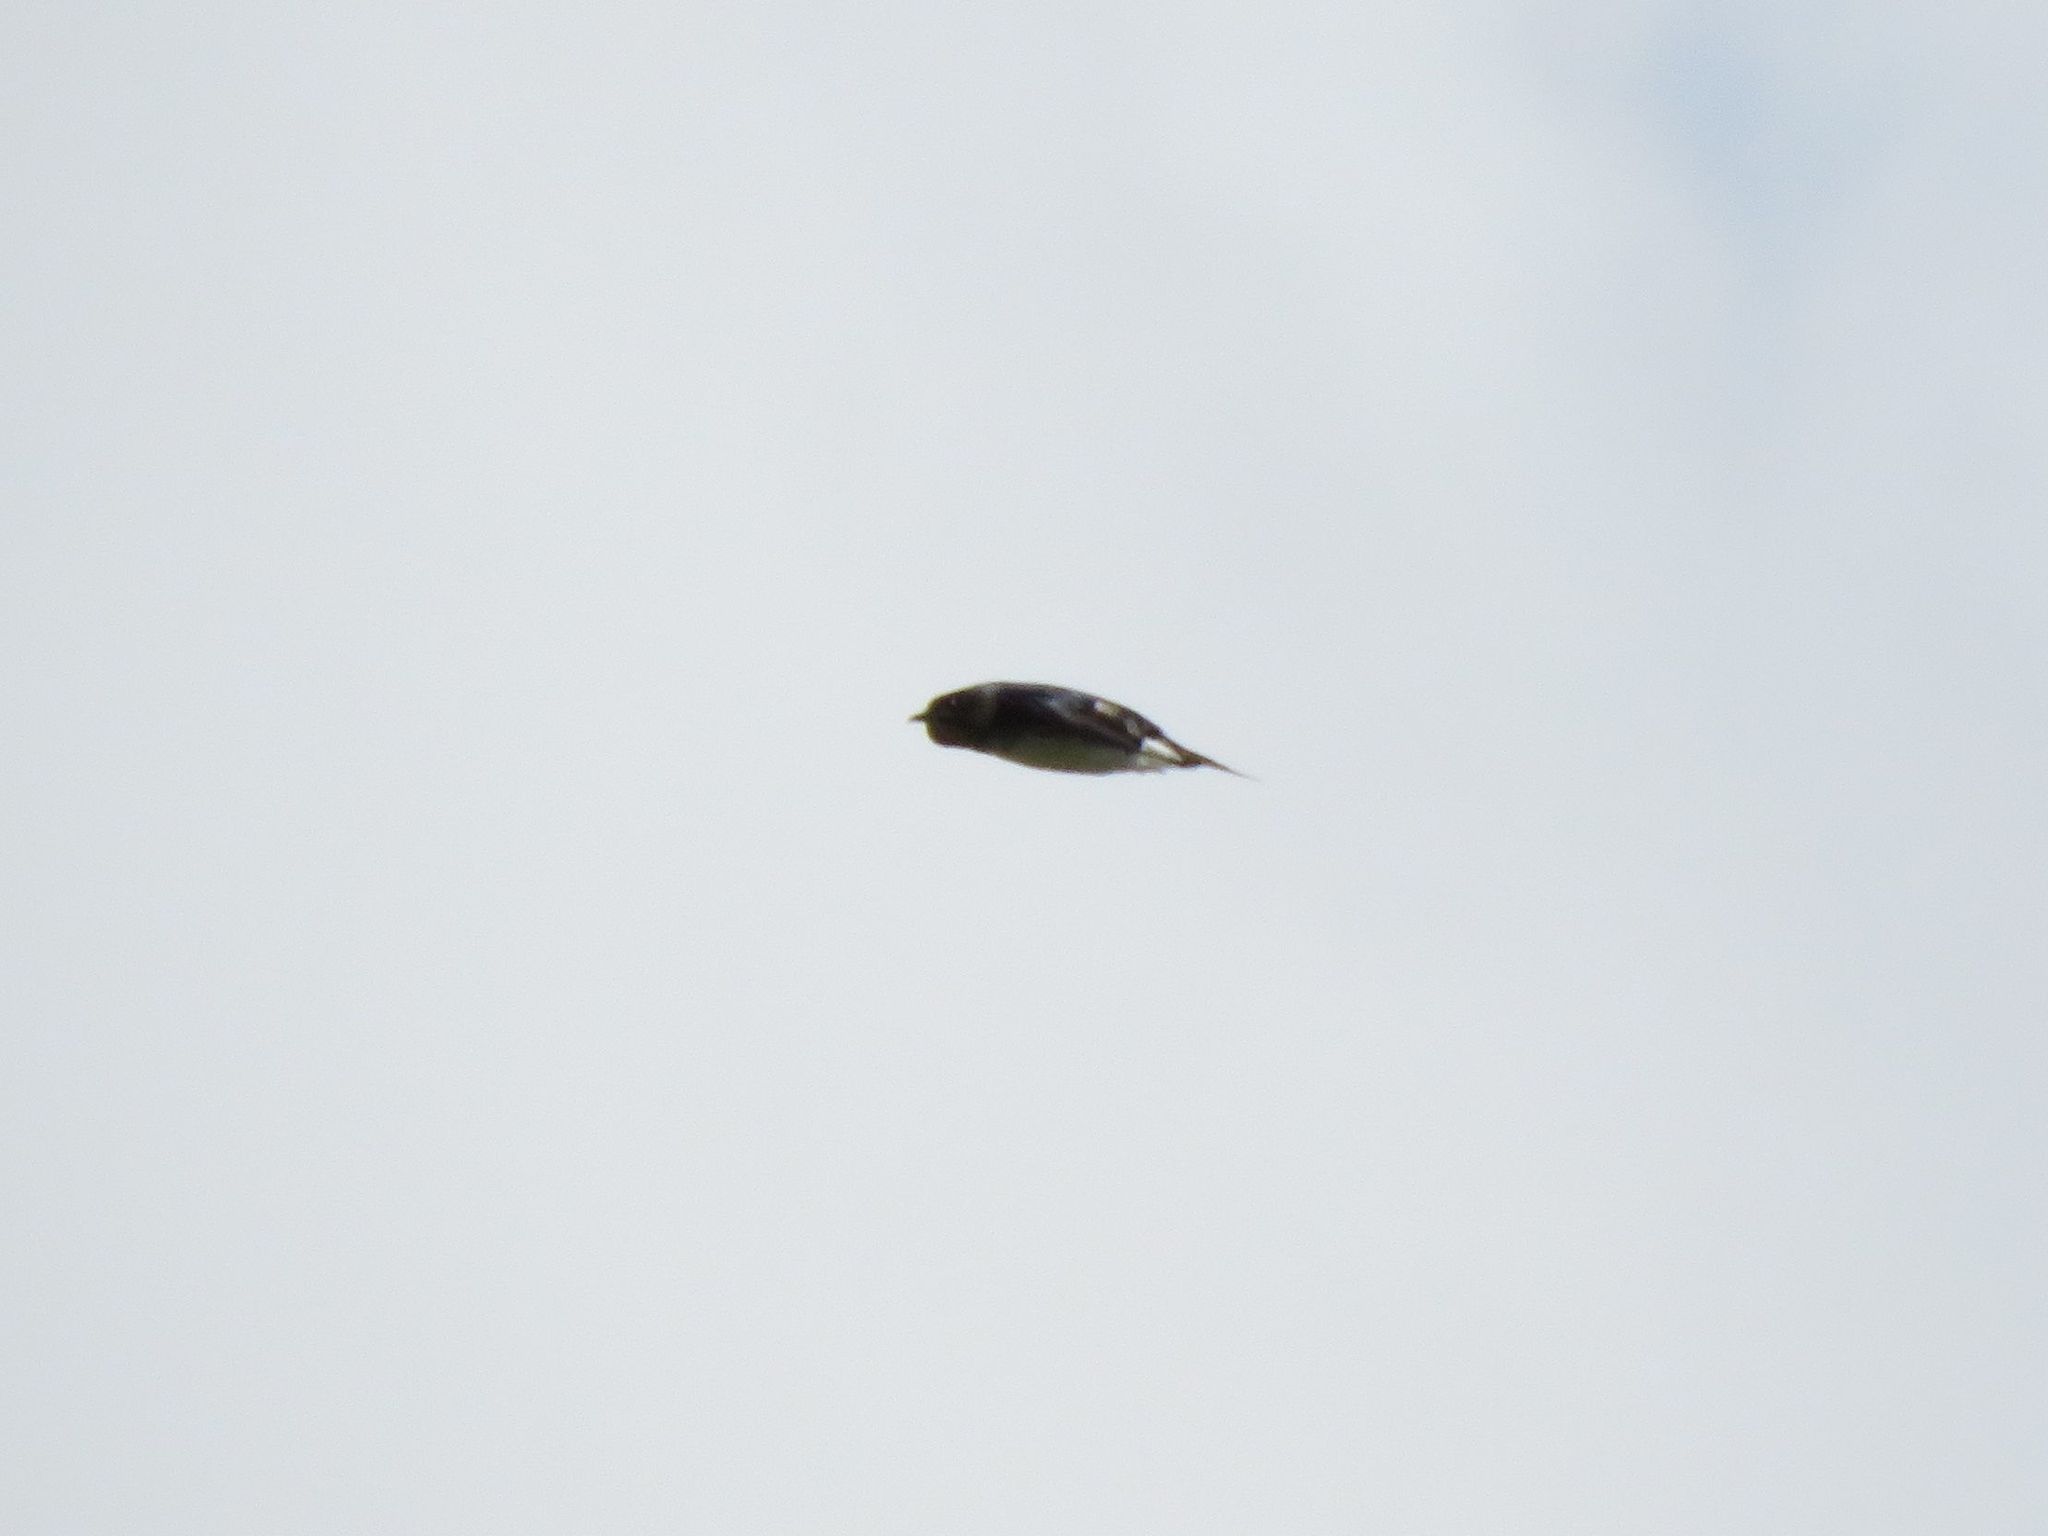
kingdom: Animalia
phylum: Chordata
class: Aves
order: Passeriformes
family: Hirundinidae
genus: Progne
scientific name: Progne chalybea
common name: Grey-breasted martin
